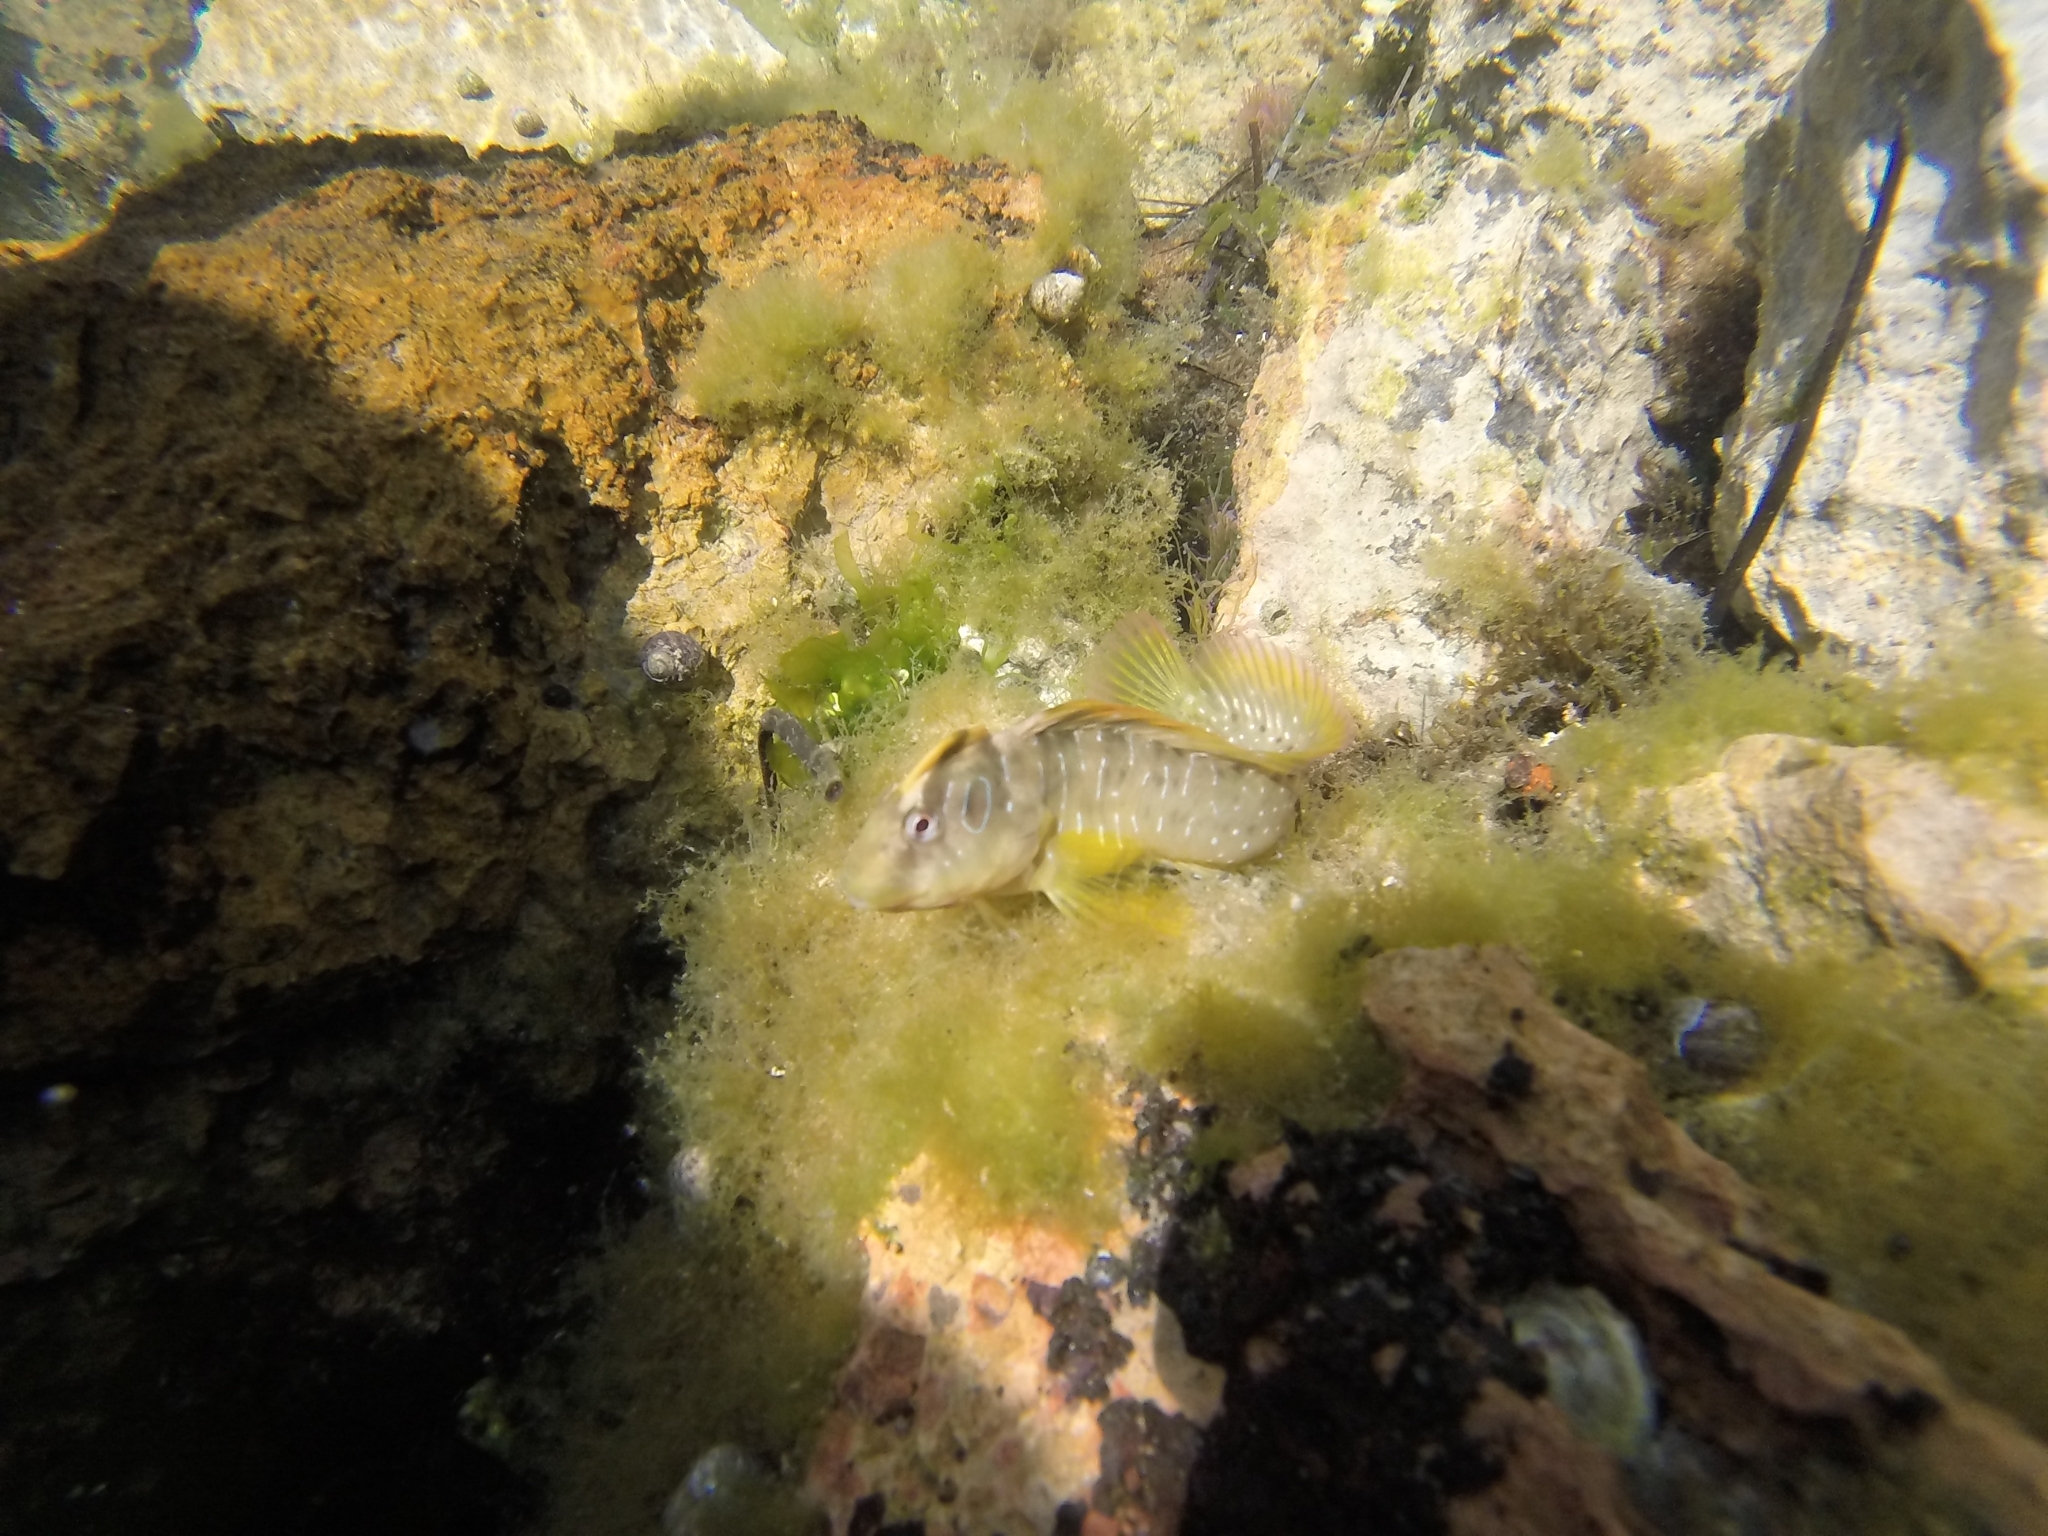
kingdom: Animalia
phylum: Chordata
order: Perciformes
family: Blenniidae
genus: Salaria
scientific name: Salaria pavo
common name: Peacock blenny
